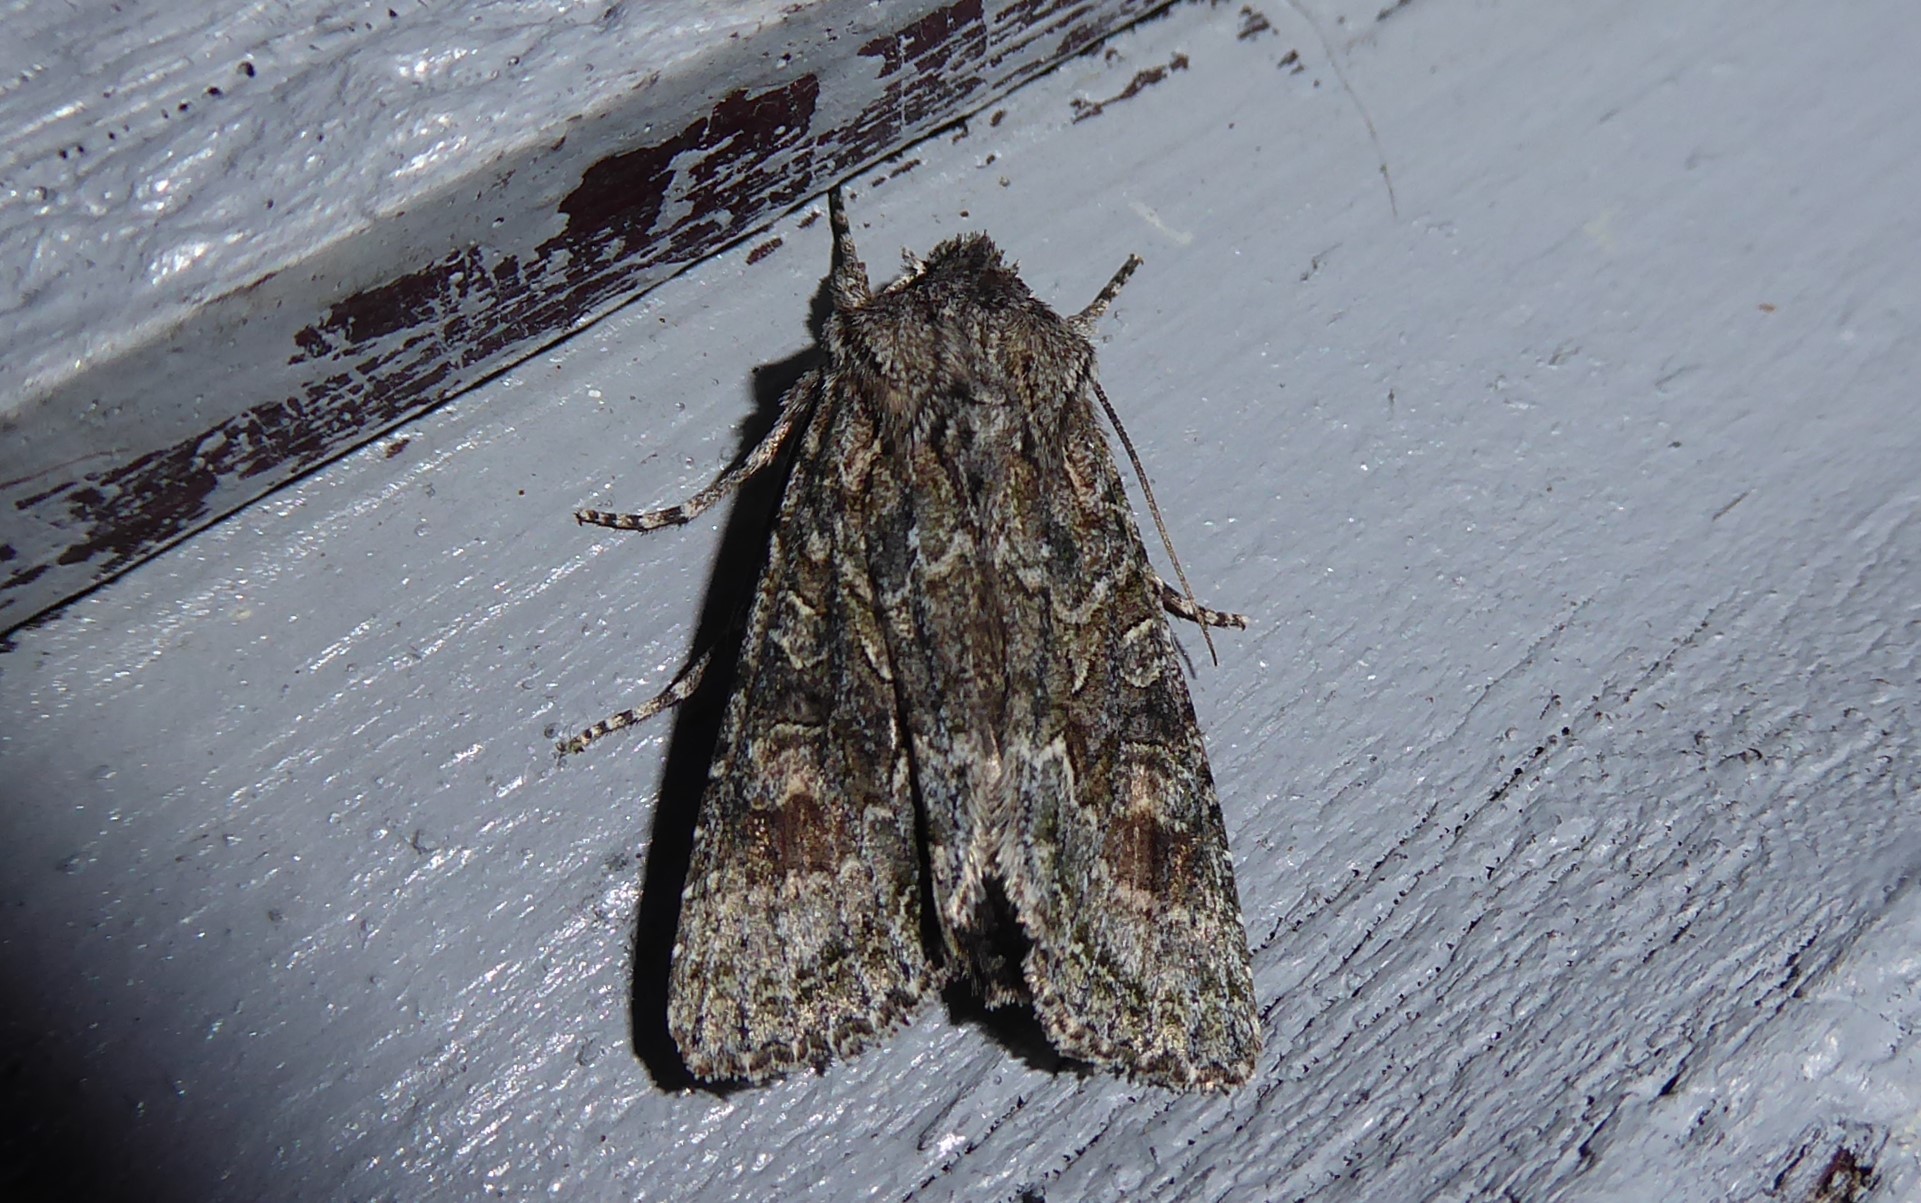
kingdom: Animalia
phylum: Arthropoda
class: Insecta
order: Lepidoptera
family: Noctuidae
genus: Ichneutica
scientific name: Ichneutica mutans
